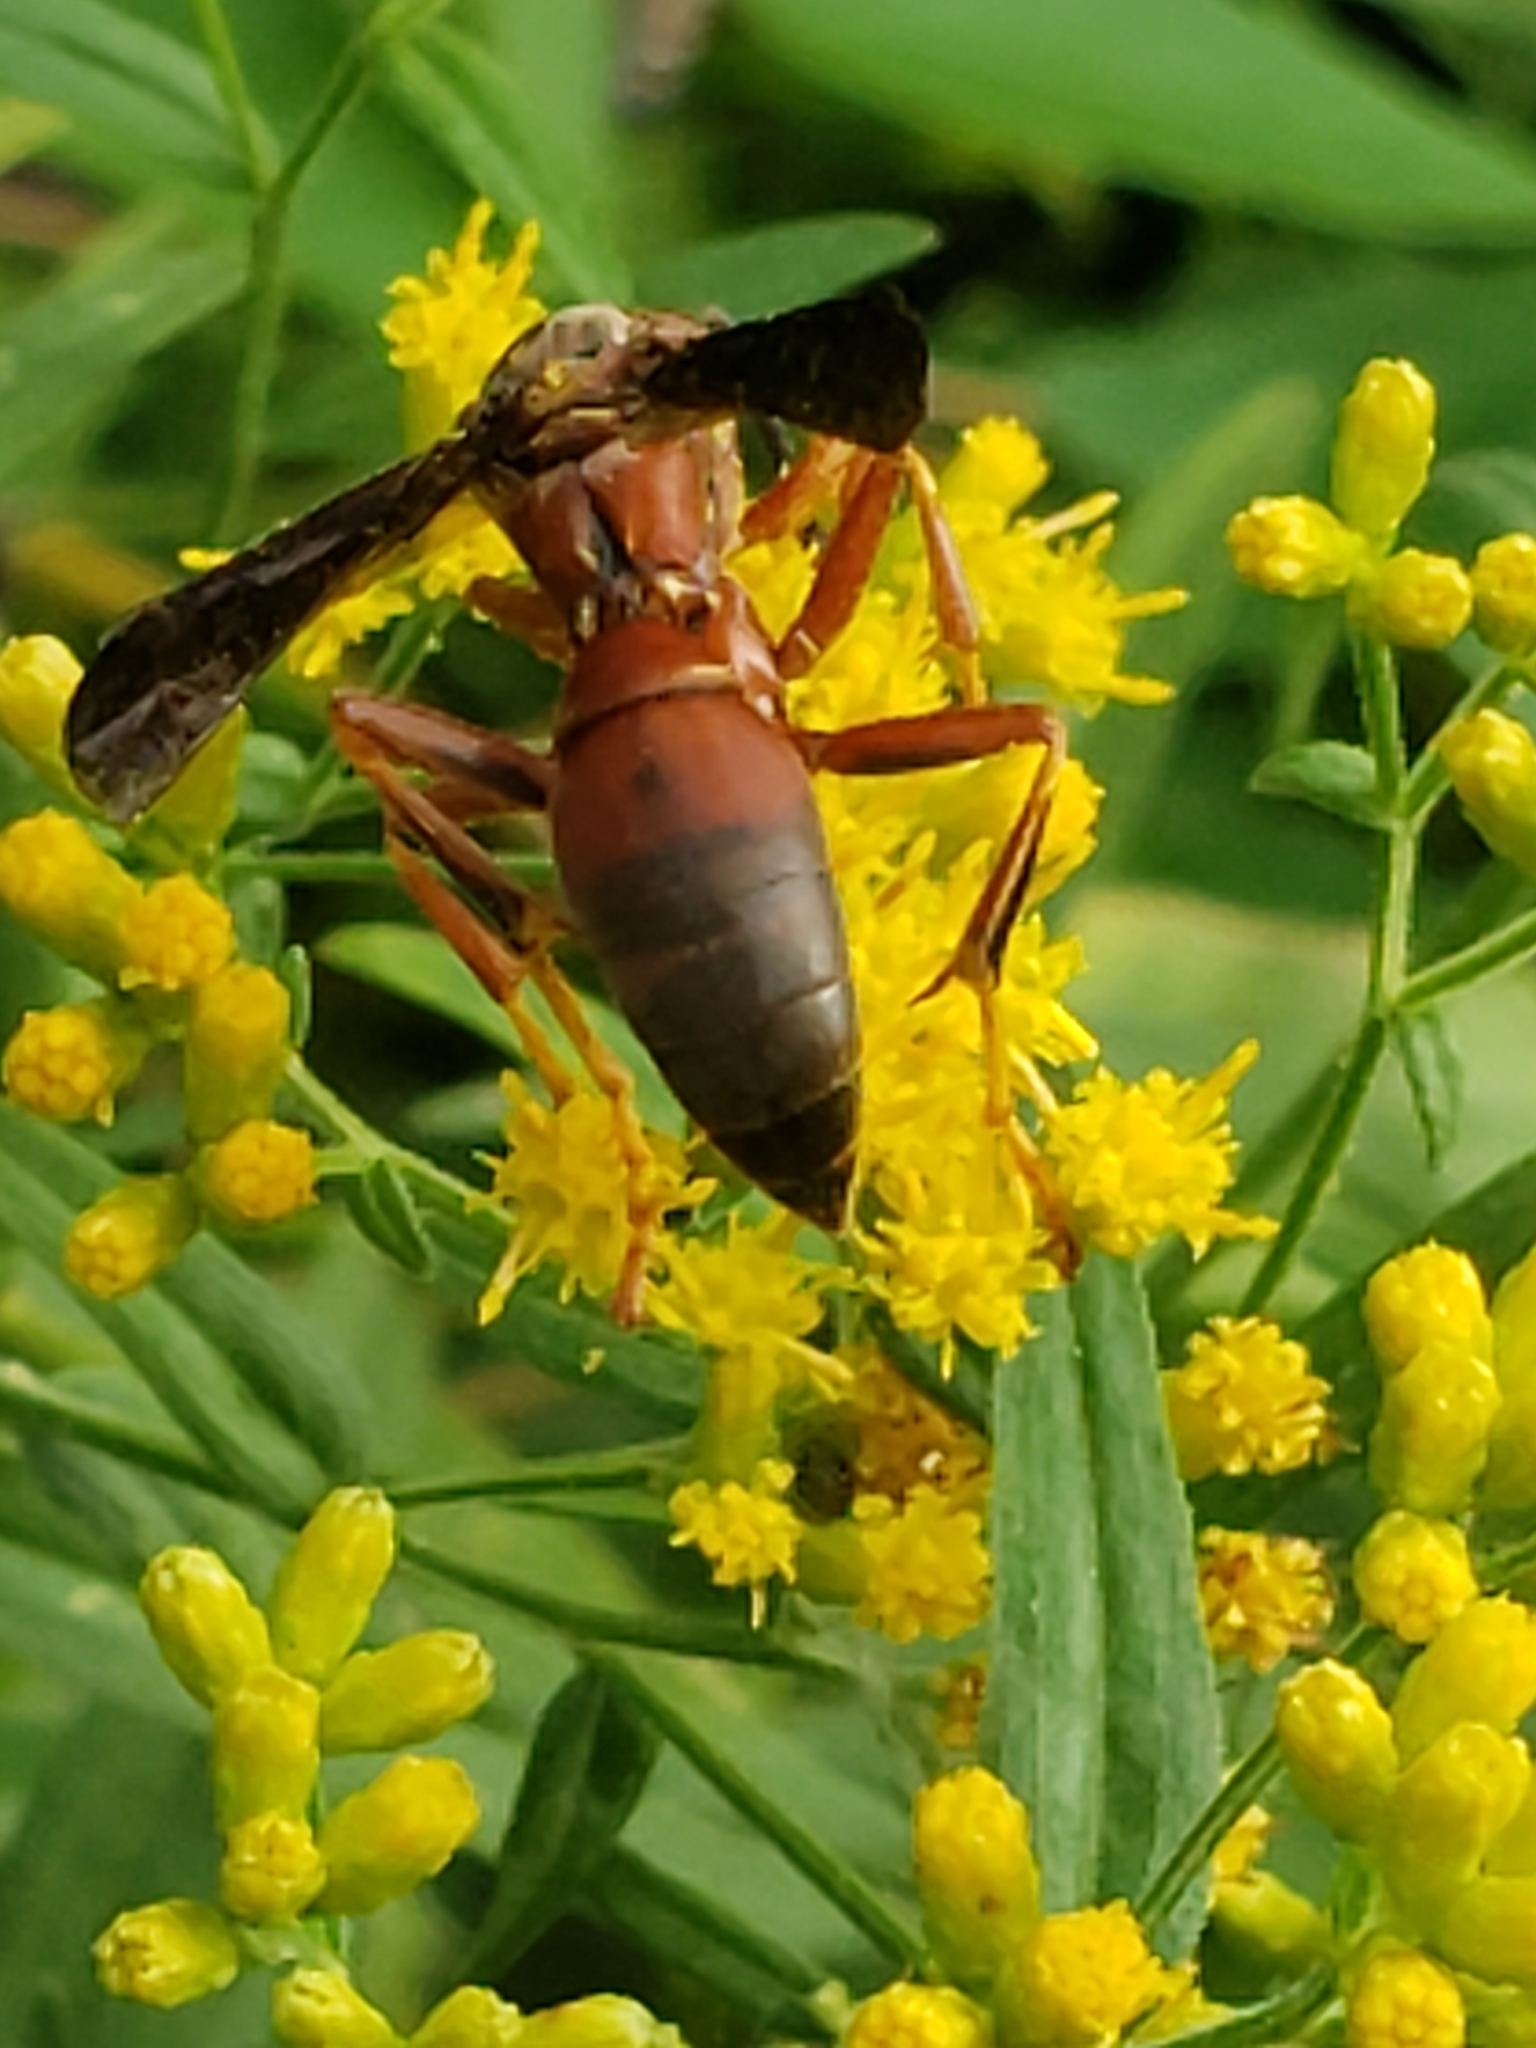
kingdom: Animalia
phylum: Arthropoda
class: Insecta
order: Hymenoptera
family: Eumenidae
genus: Polistes
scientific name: Polistes metricus
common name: Metric paper wasp
